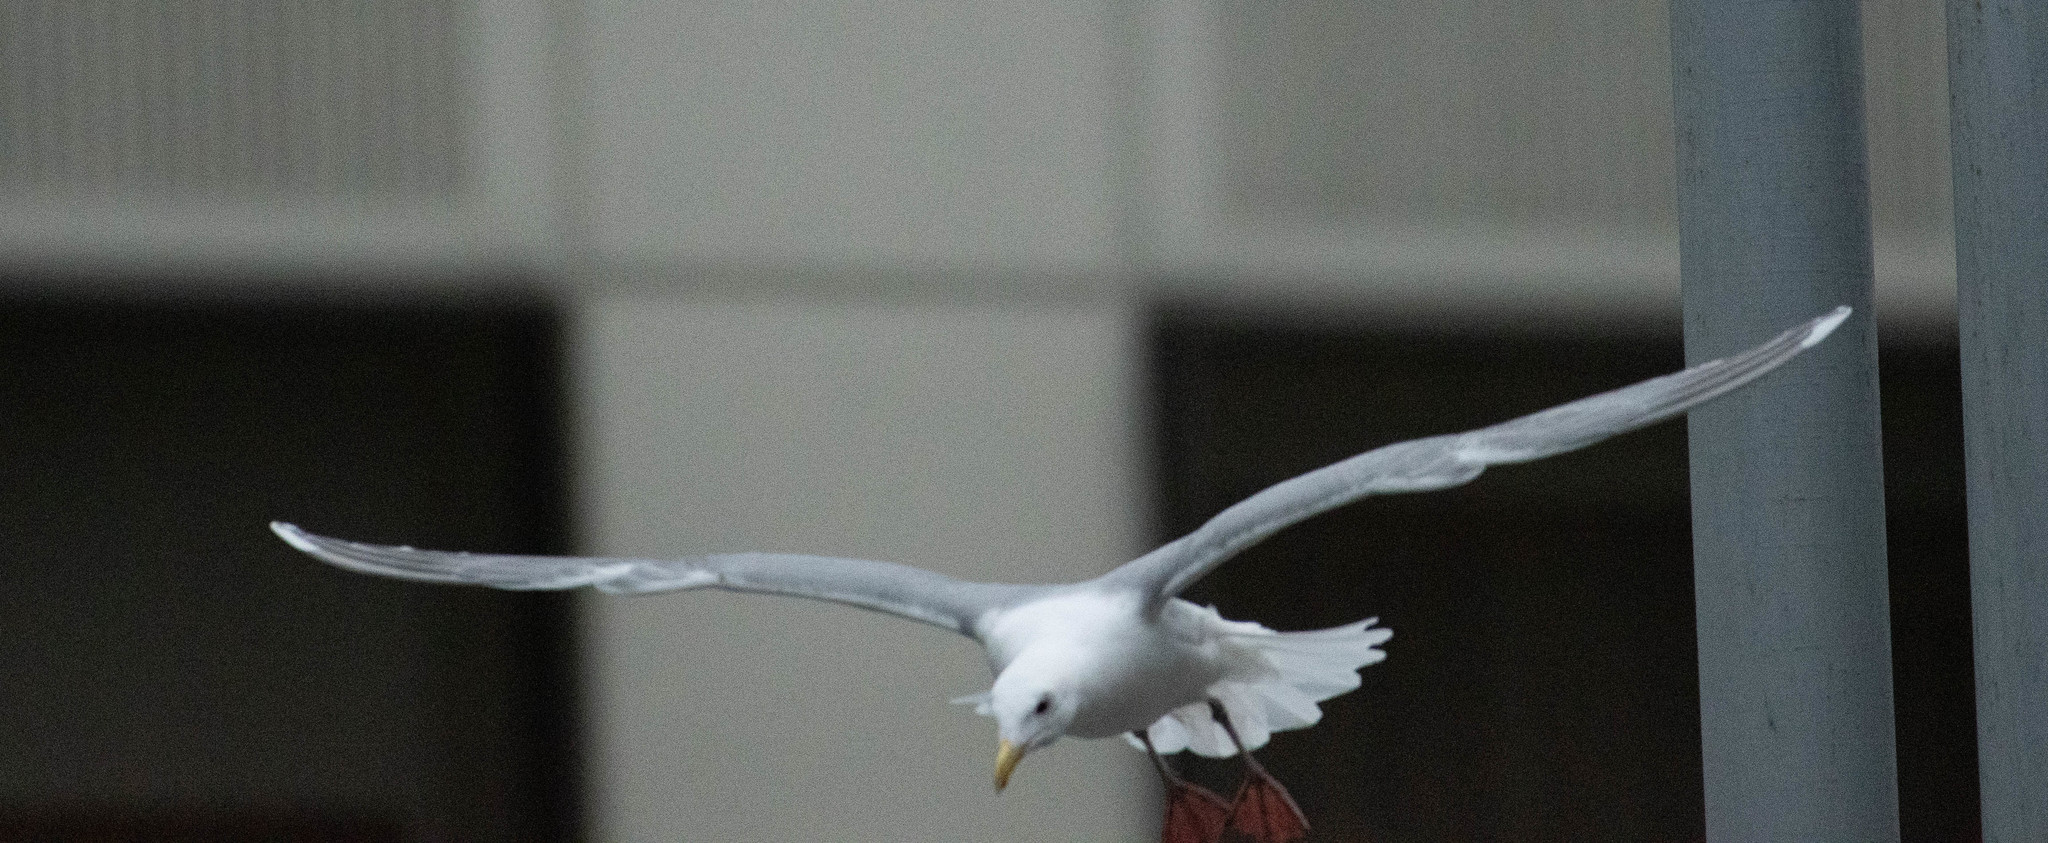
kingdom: Animalia
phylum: Chordata
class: Aves
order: Charadriiformes
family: Laridae
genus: Larus
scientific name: Larus glaucescens
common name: Glaucous-winged gull
